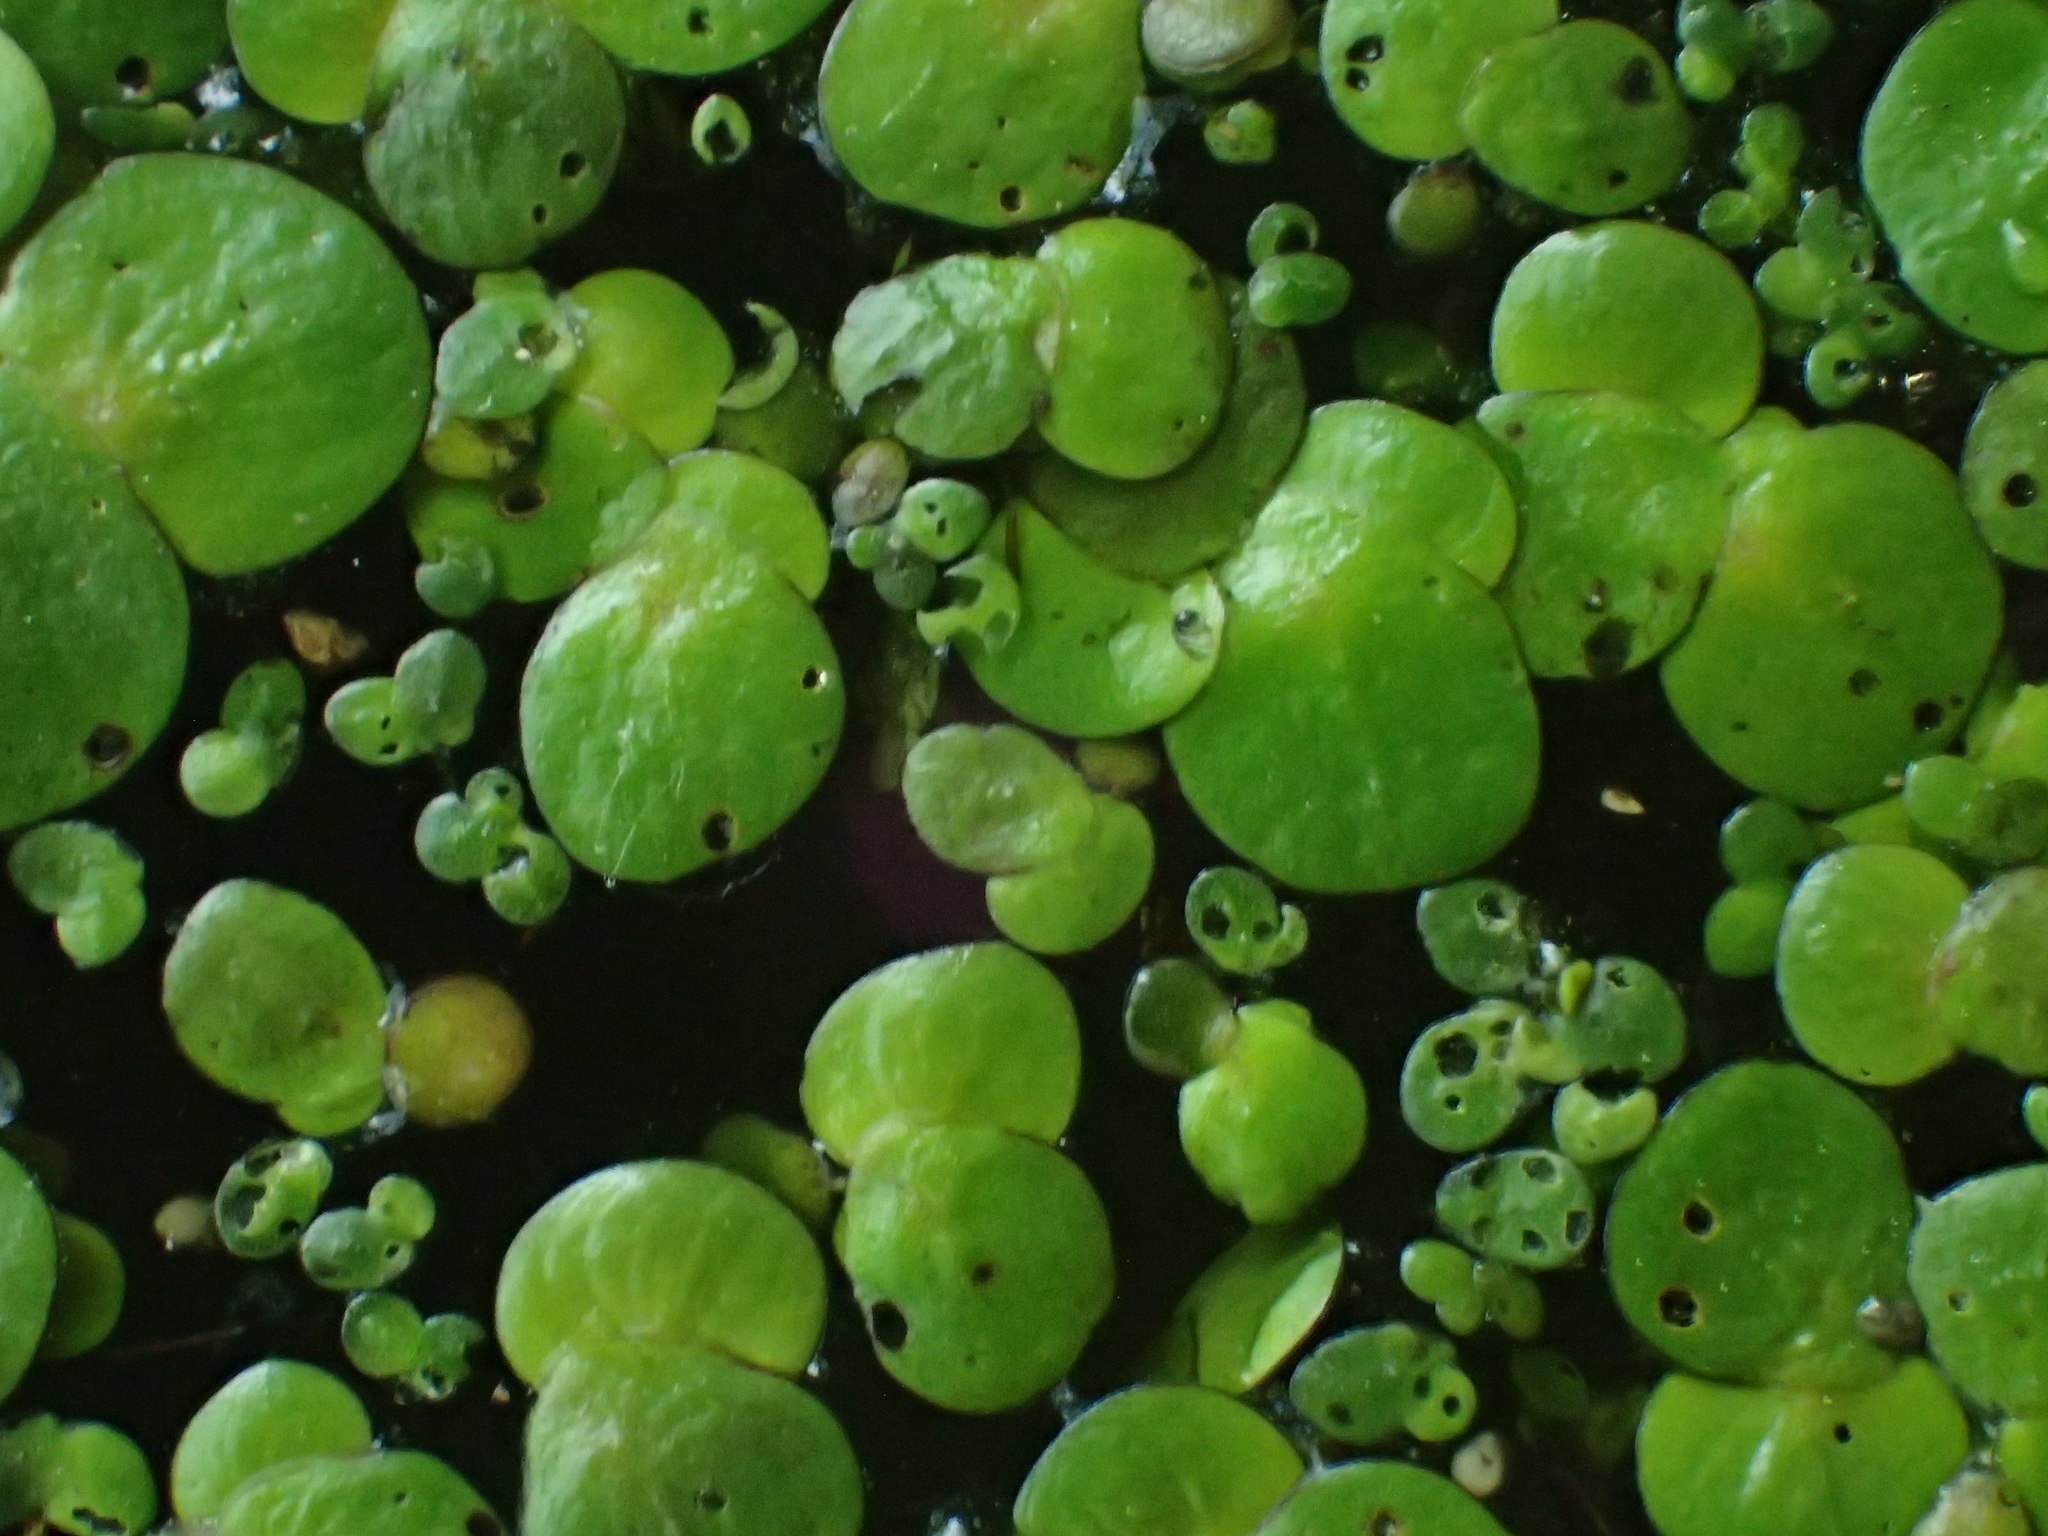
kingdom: Plantae
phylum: Tracheophyta
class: Liliopsida
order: Alismatales
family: Araceae
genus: Spirodela
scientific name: Spirodela polyrhiza
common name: Great duckweed
